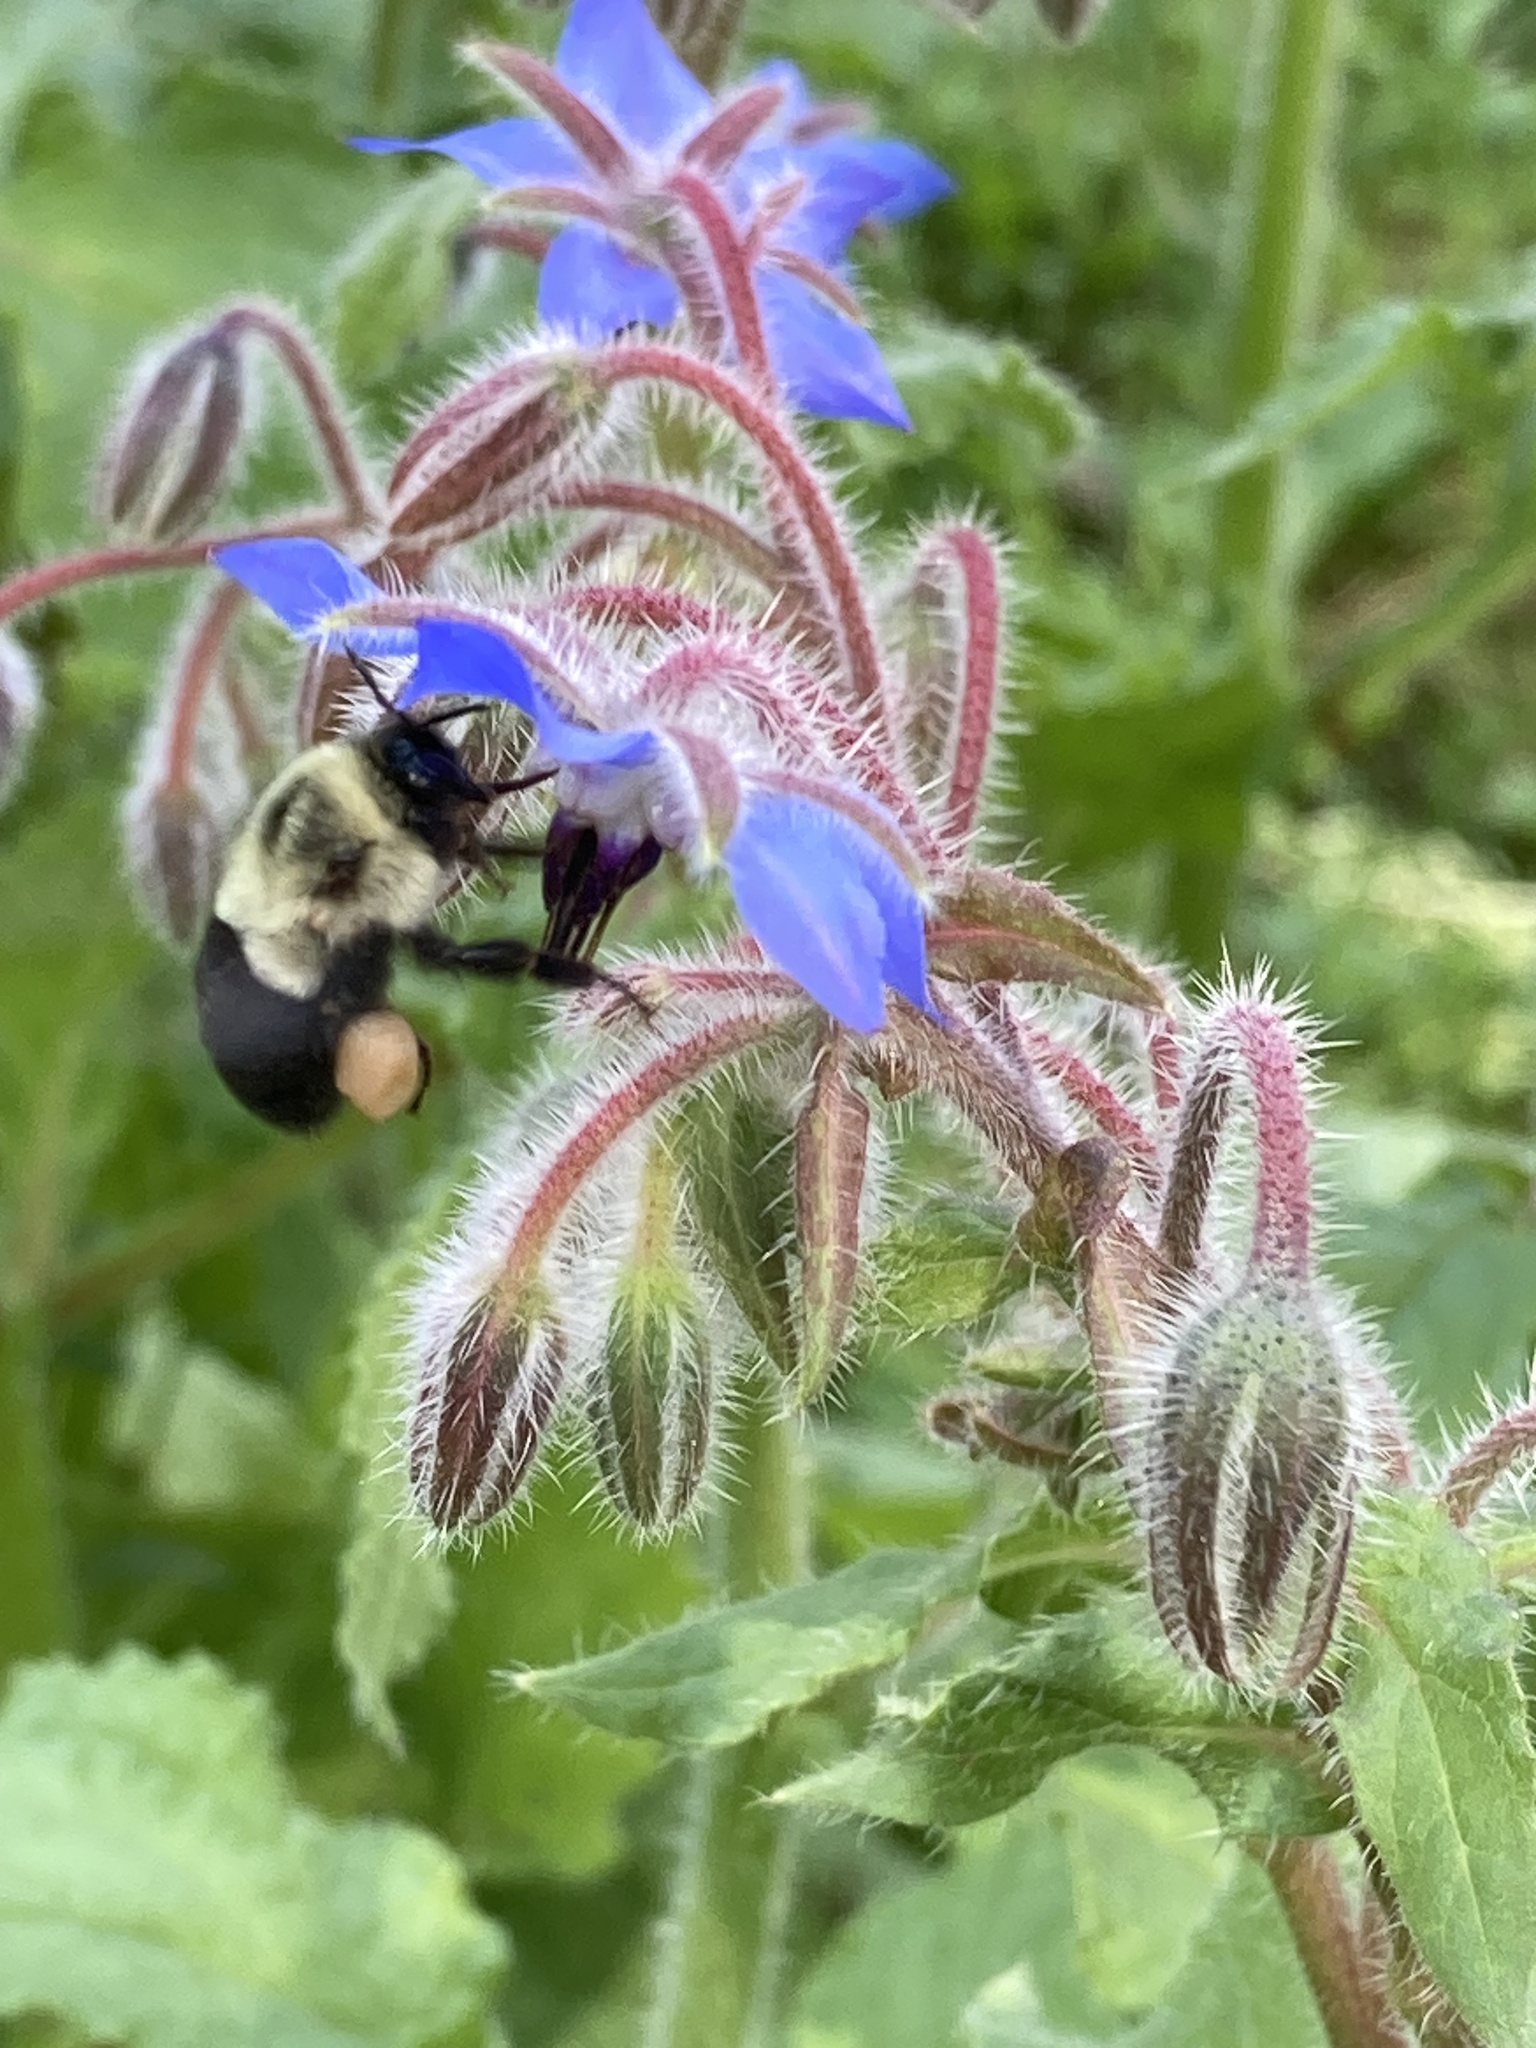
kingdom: Animalia
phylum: Arthropoda
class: Insecta
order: Hymenoptera
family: Apidae
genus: Bombus
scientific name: Bombus impatiens
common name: Common eastern bumble bee
